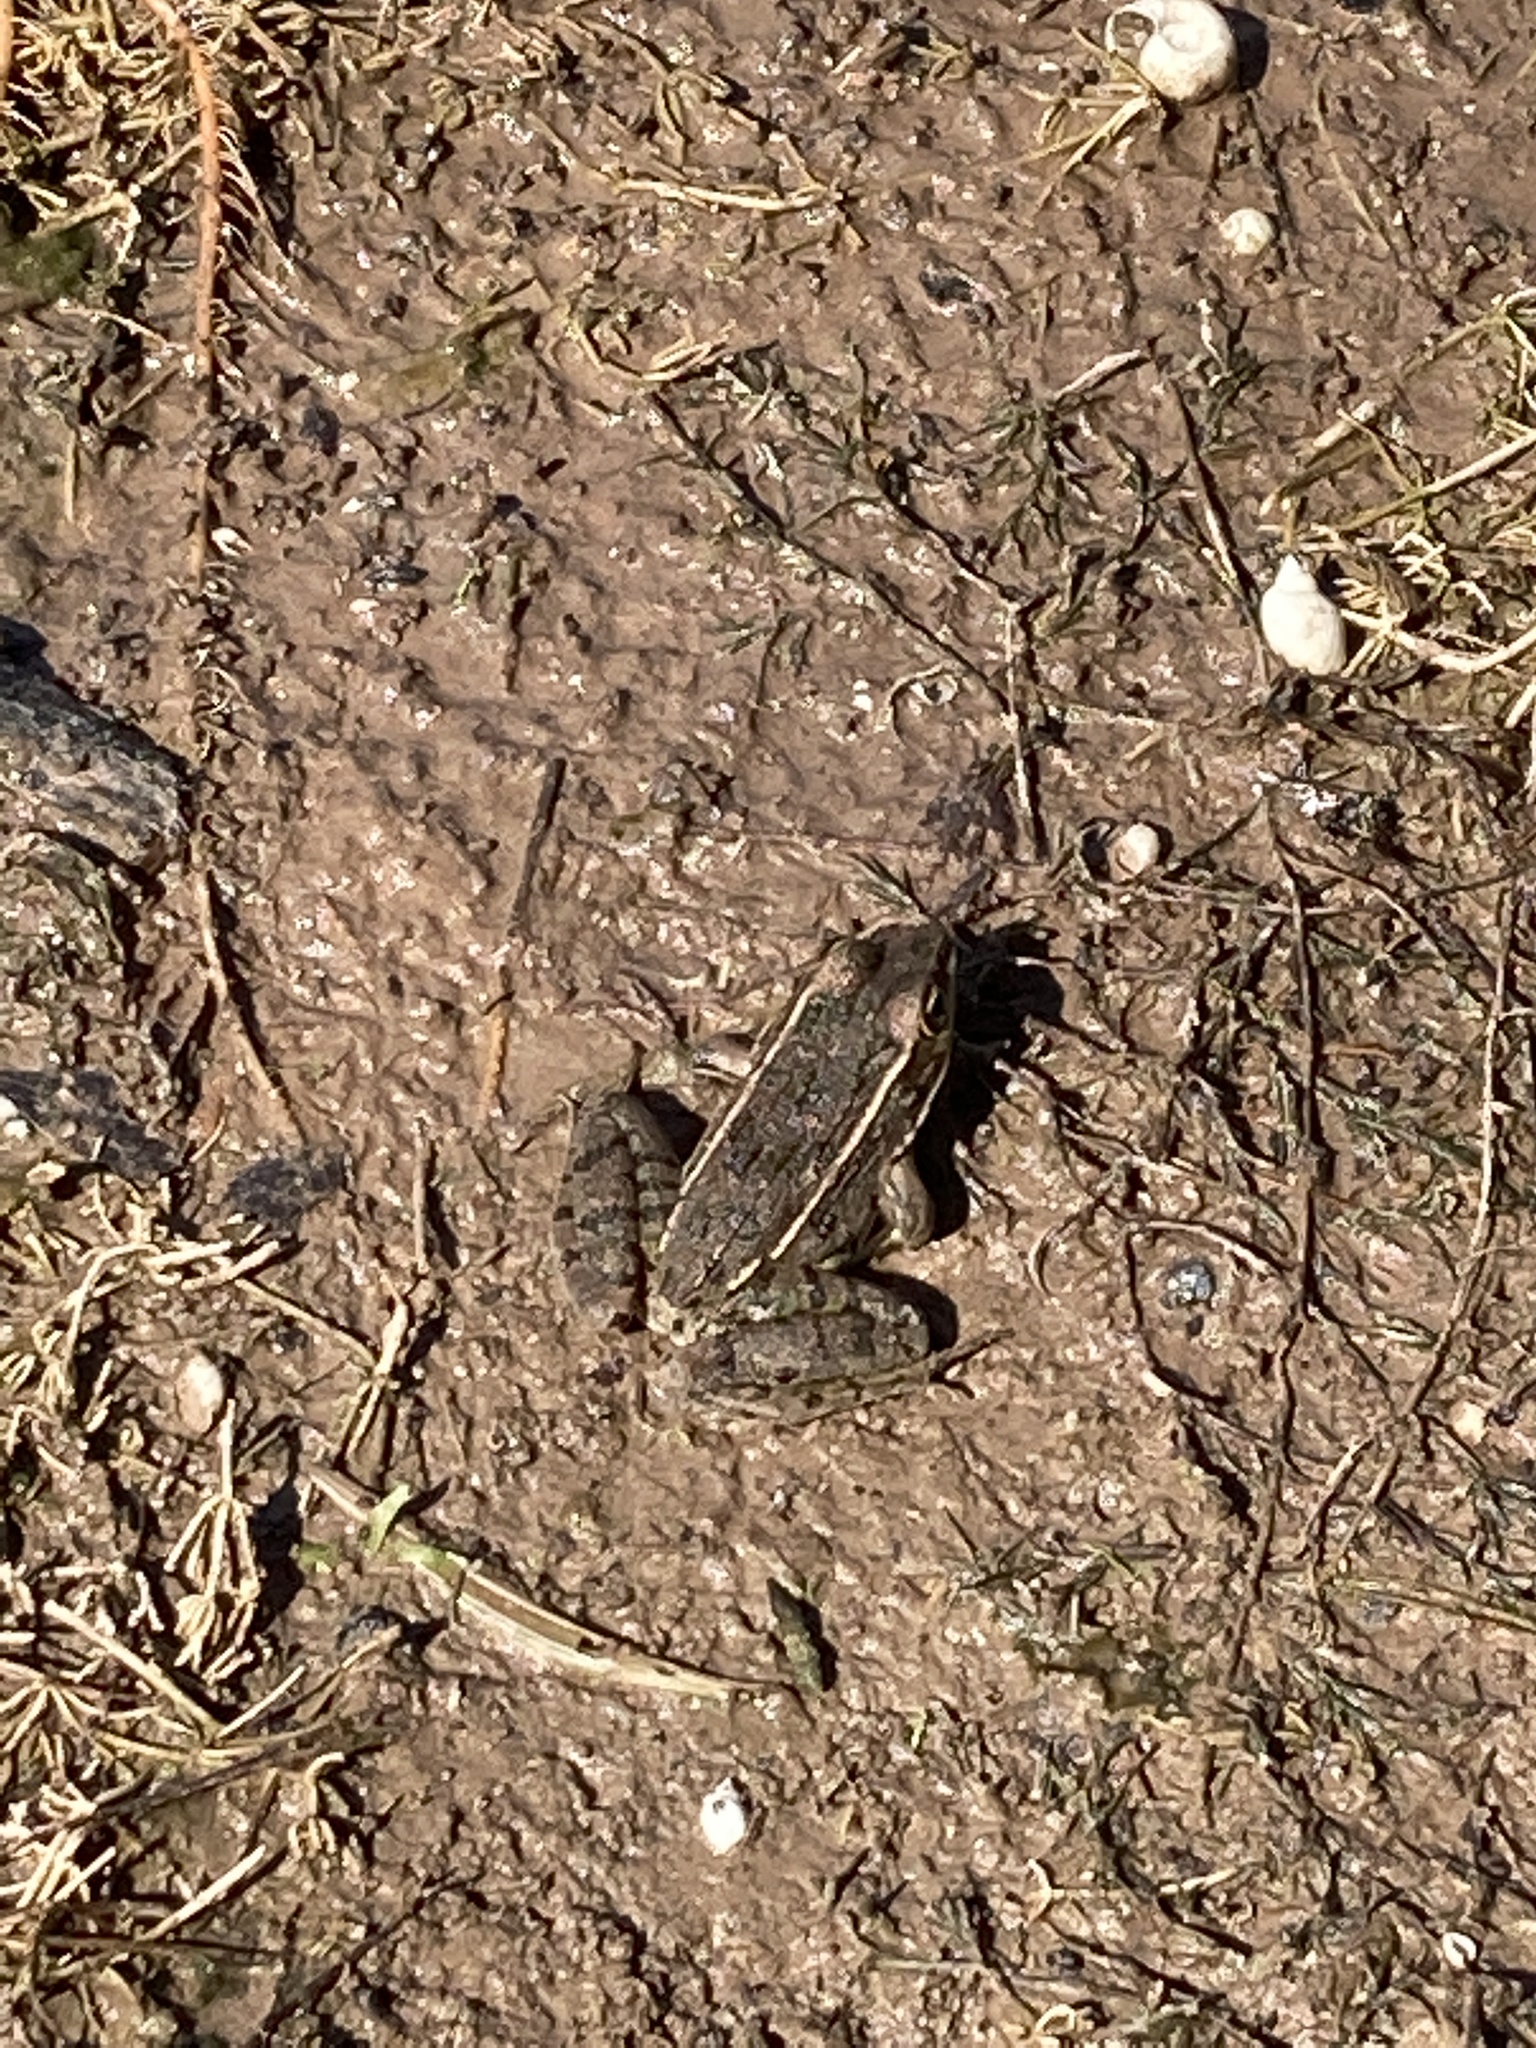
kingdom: Animalia
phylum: Chordata
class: Amphibia
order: Anura
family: Ranidae
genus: Lithobates
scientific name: Lithobates blairi
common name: Plains leopard frog
